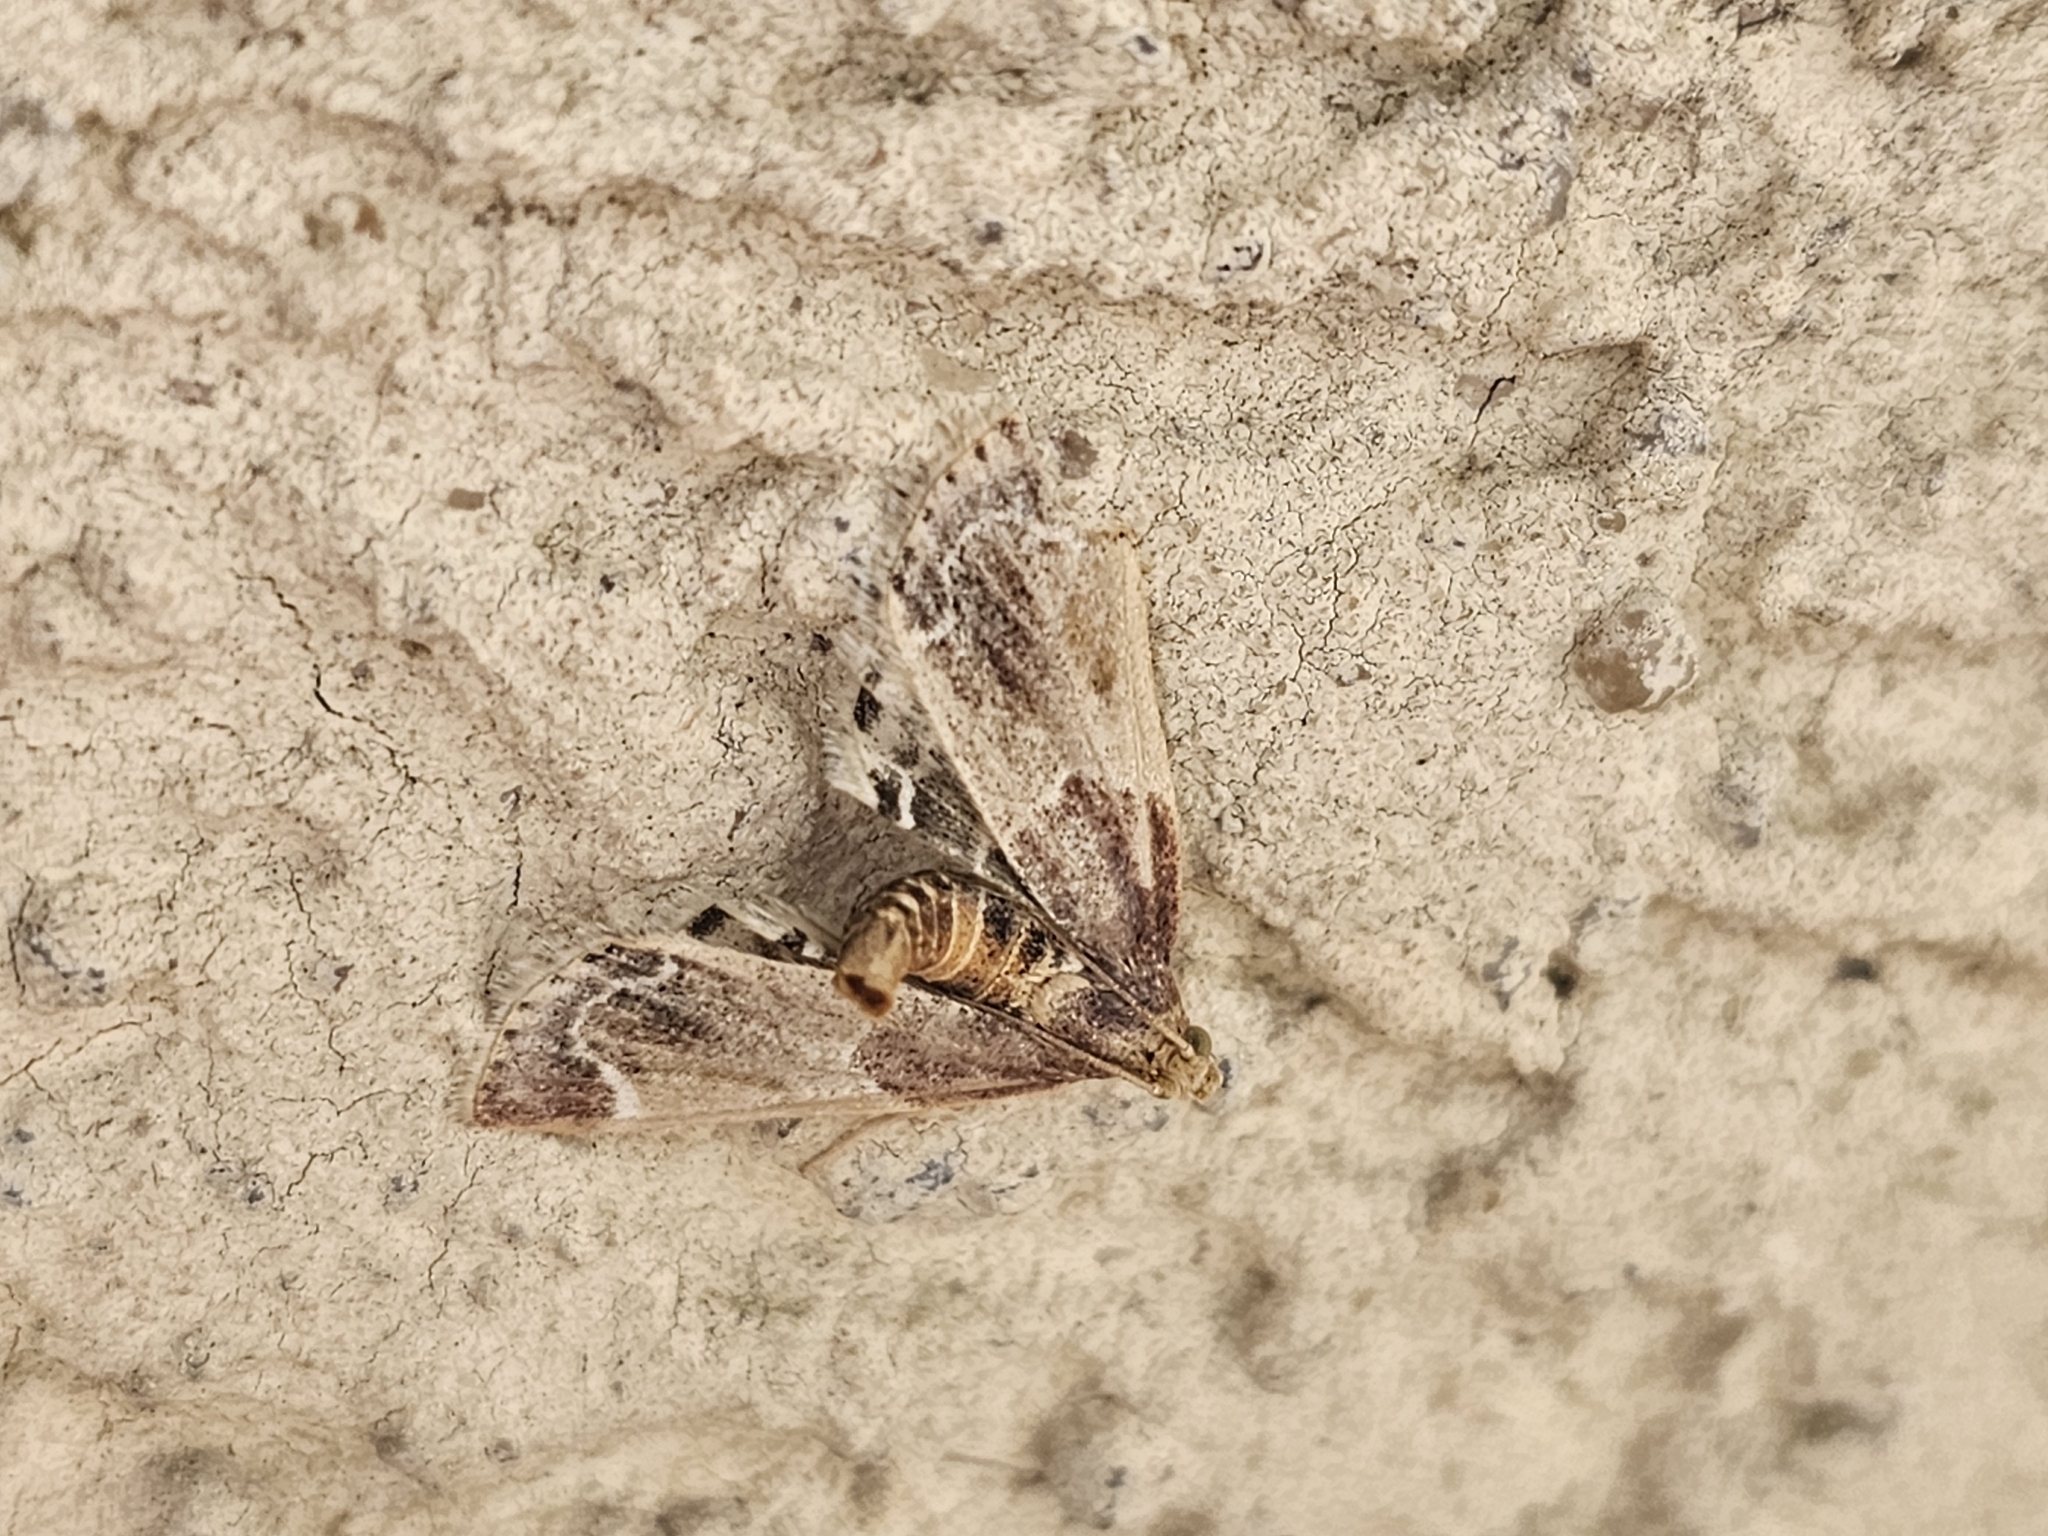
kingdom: Animalia
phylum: Arthropoda
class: Insecta
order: Lepidoptera
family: Pyralidae
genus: Pyralis
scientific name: Pyralis farinalis
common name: Meal moth
